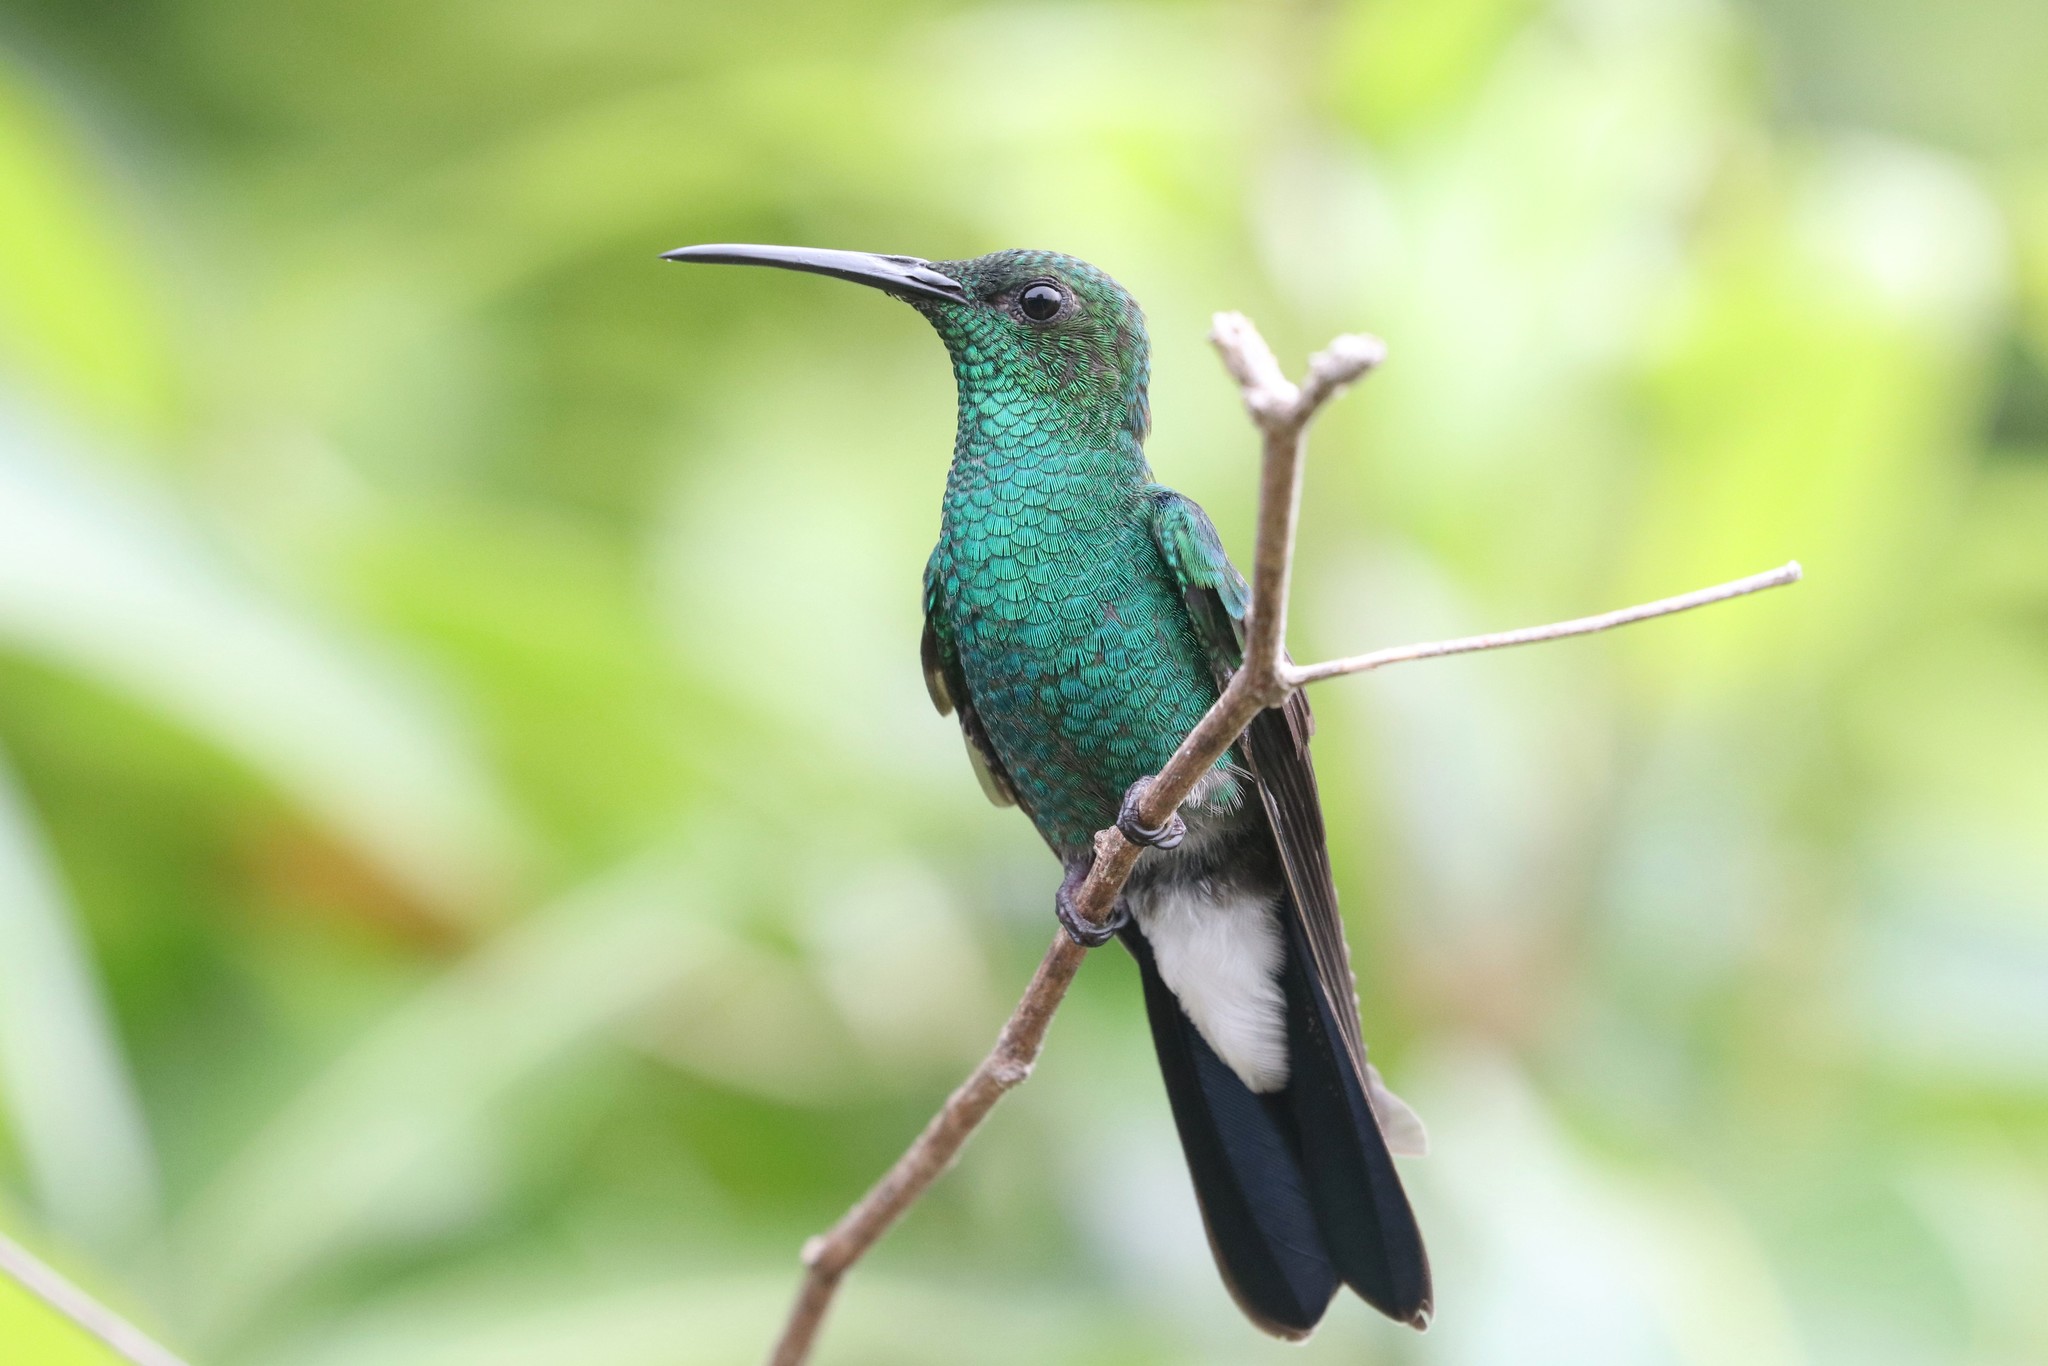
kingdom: Animalia
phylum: Chordata
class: Aves
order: Apodiformes
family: Trochilidae
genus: Chalybura
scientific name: Chalybura buffonii
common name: White-vented plumeleteer
